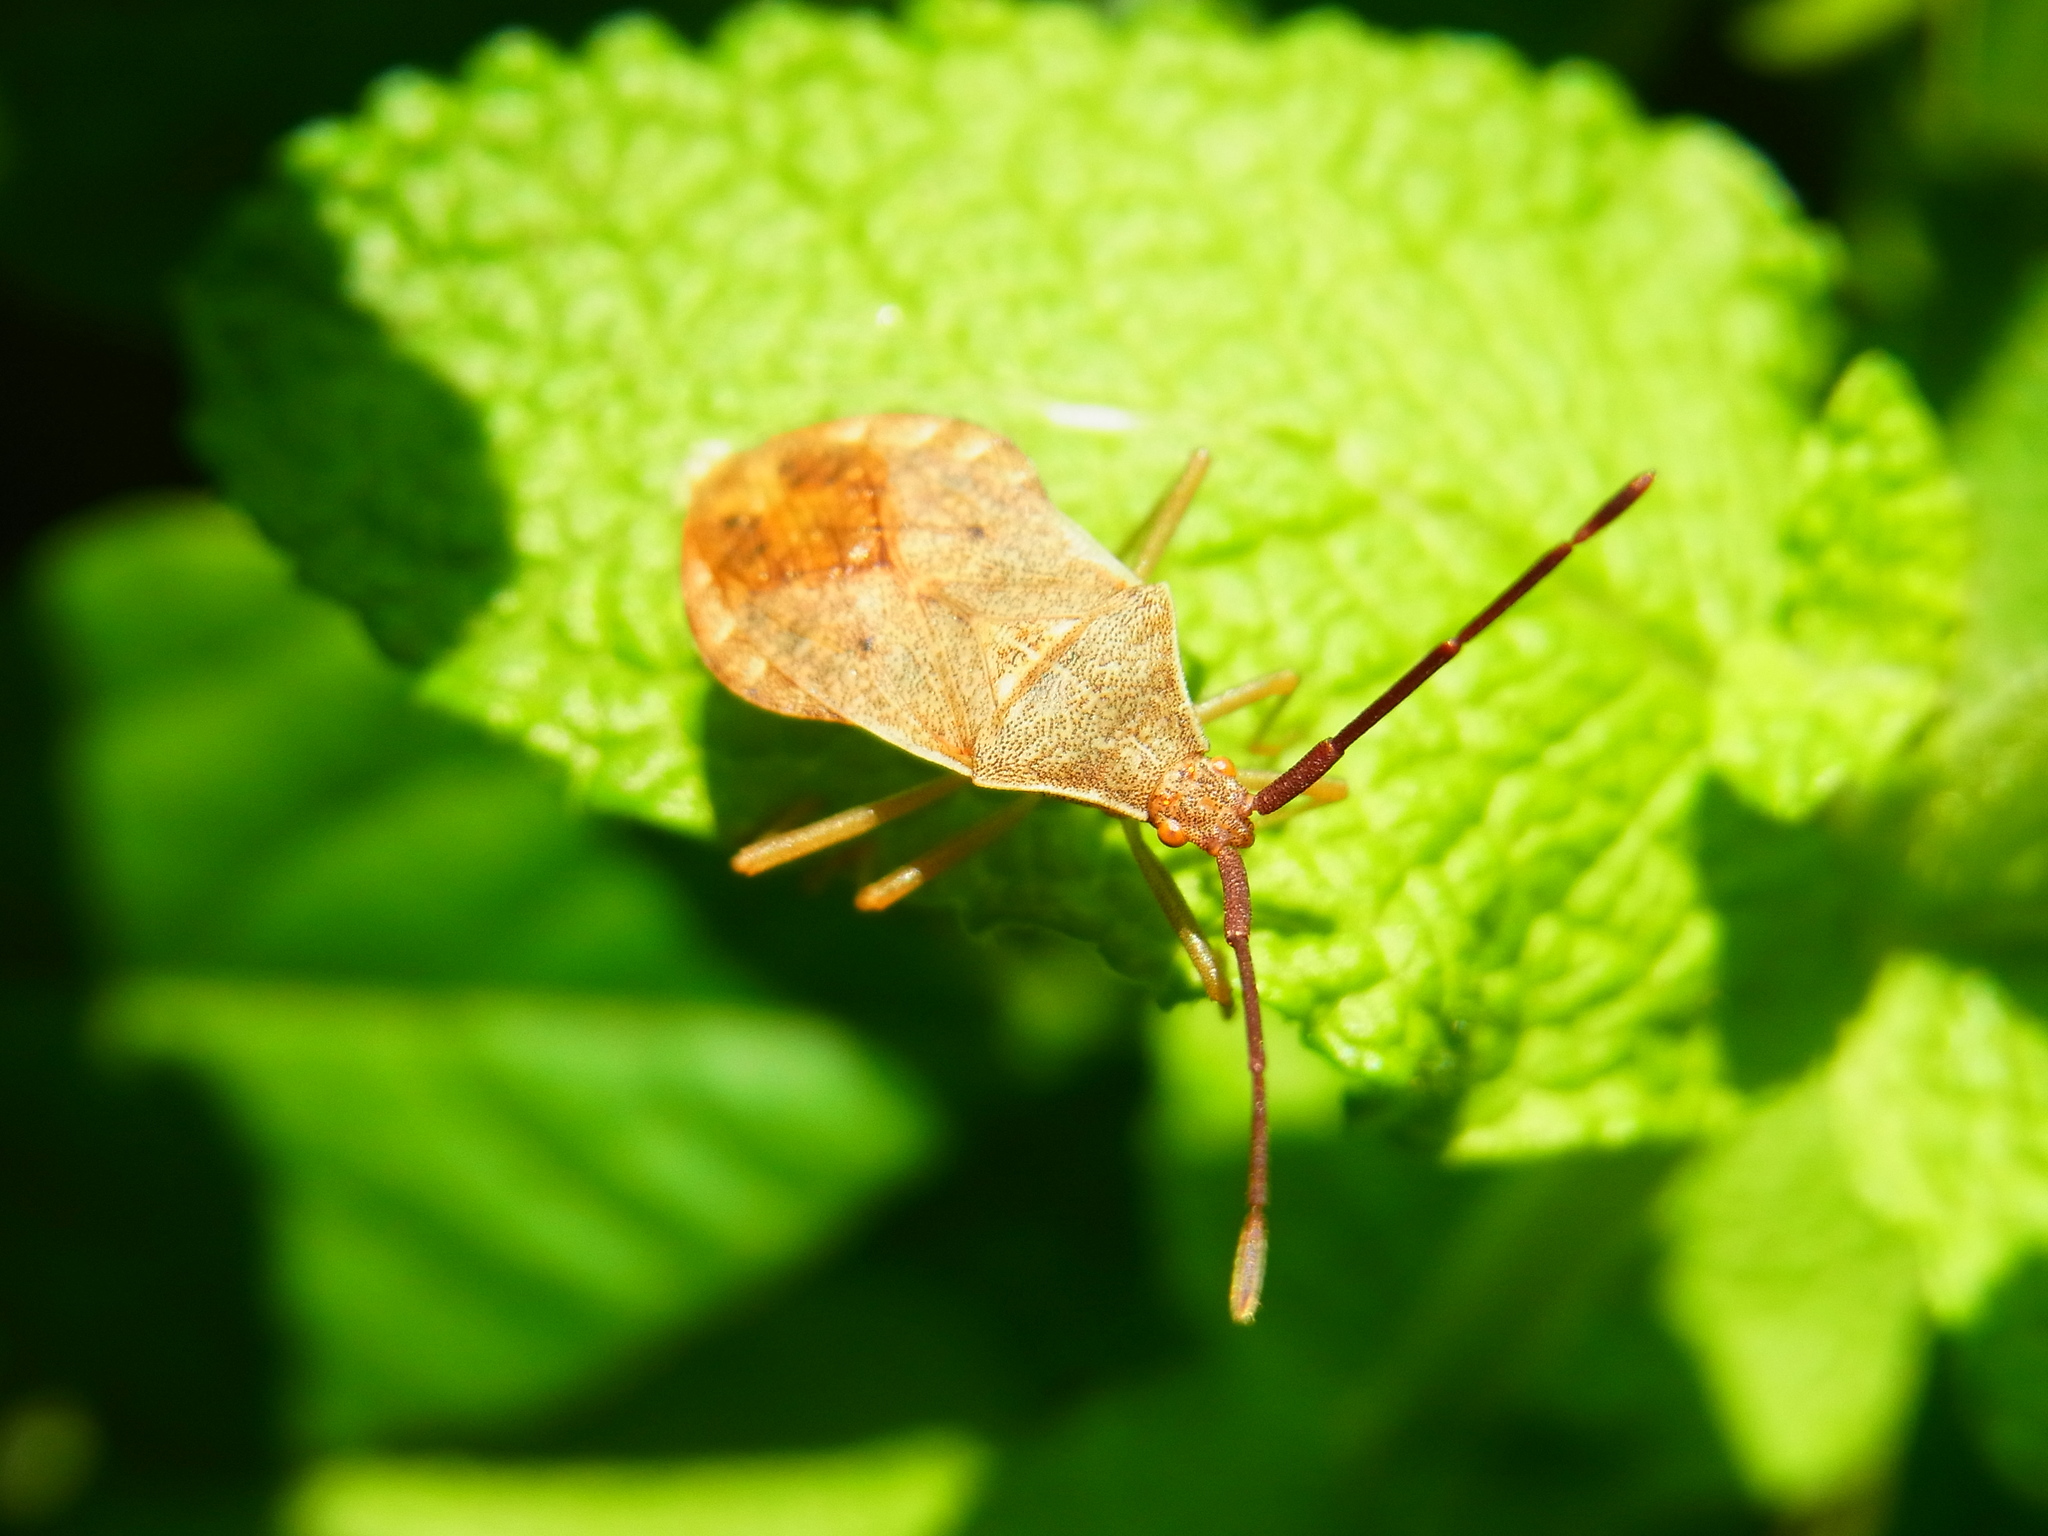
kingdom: Animalia
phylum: Arthropoda
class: Insecta
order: Hemiptera
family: Coreidae
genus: Homoeocerus
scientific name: Homoeocerus unipunctatus
